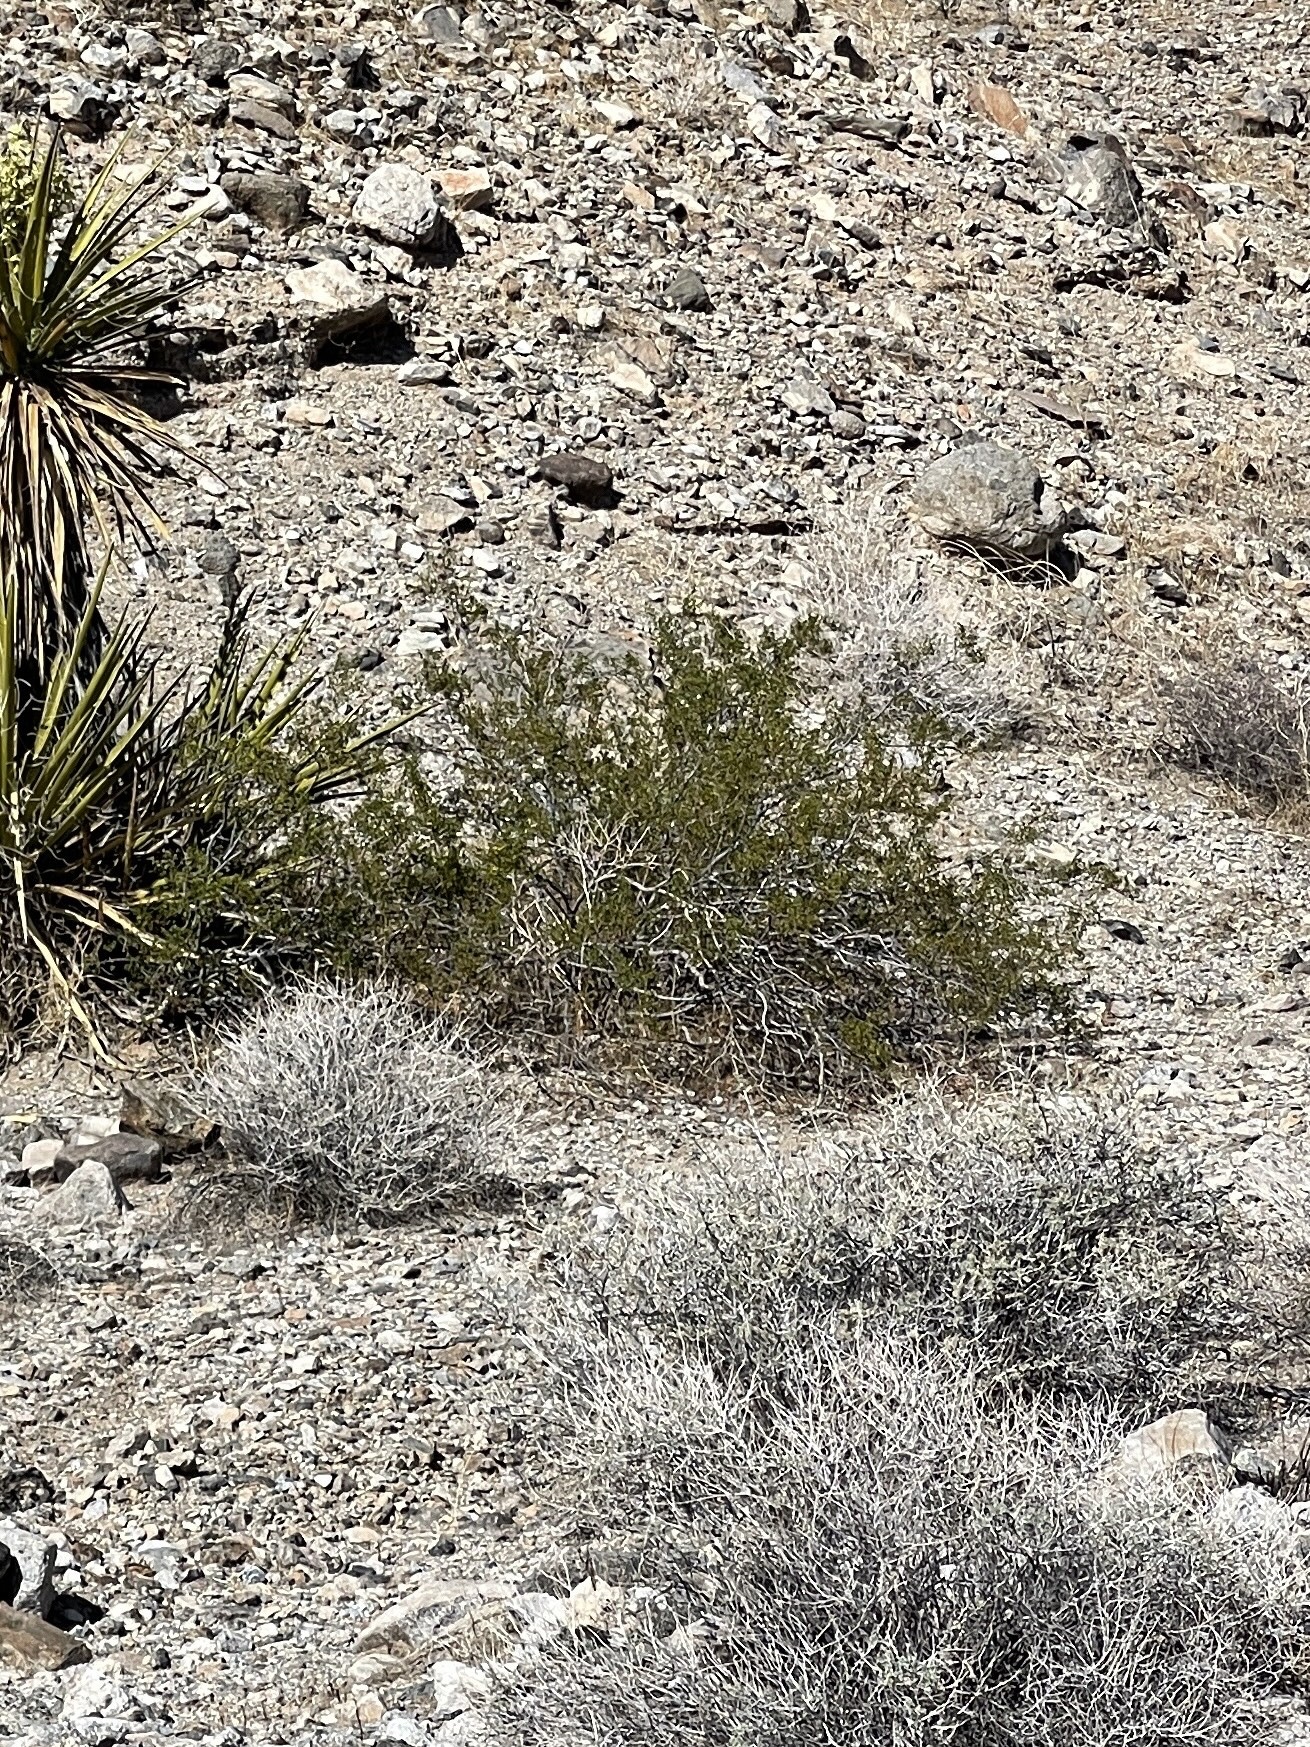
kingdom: Plantae
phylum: Tracheophyta
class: Magnoliopsida
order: Zygophyllales
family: Zygophyllaceae
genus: Larrea
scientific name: Larrea tridentata
